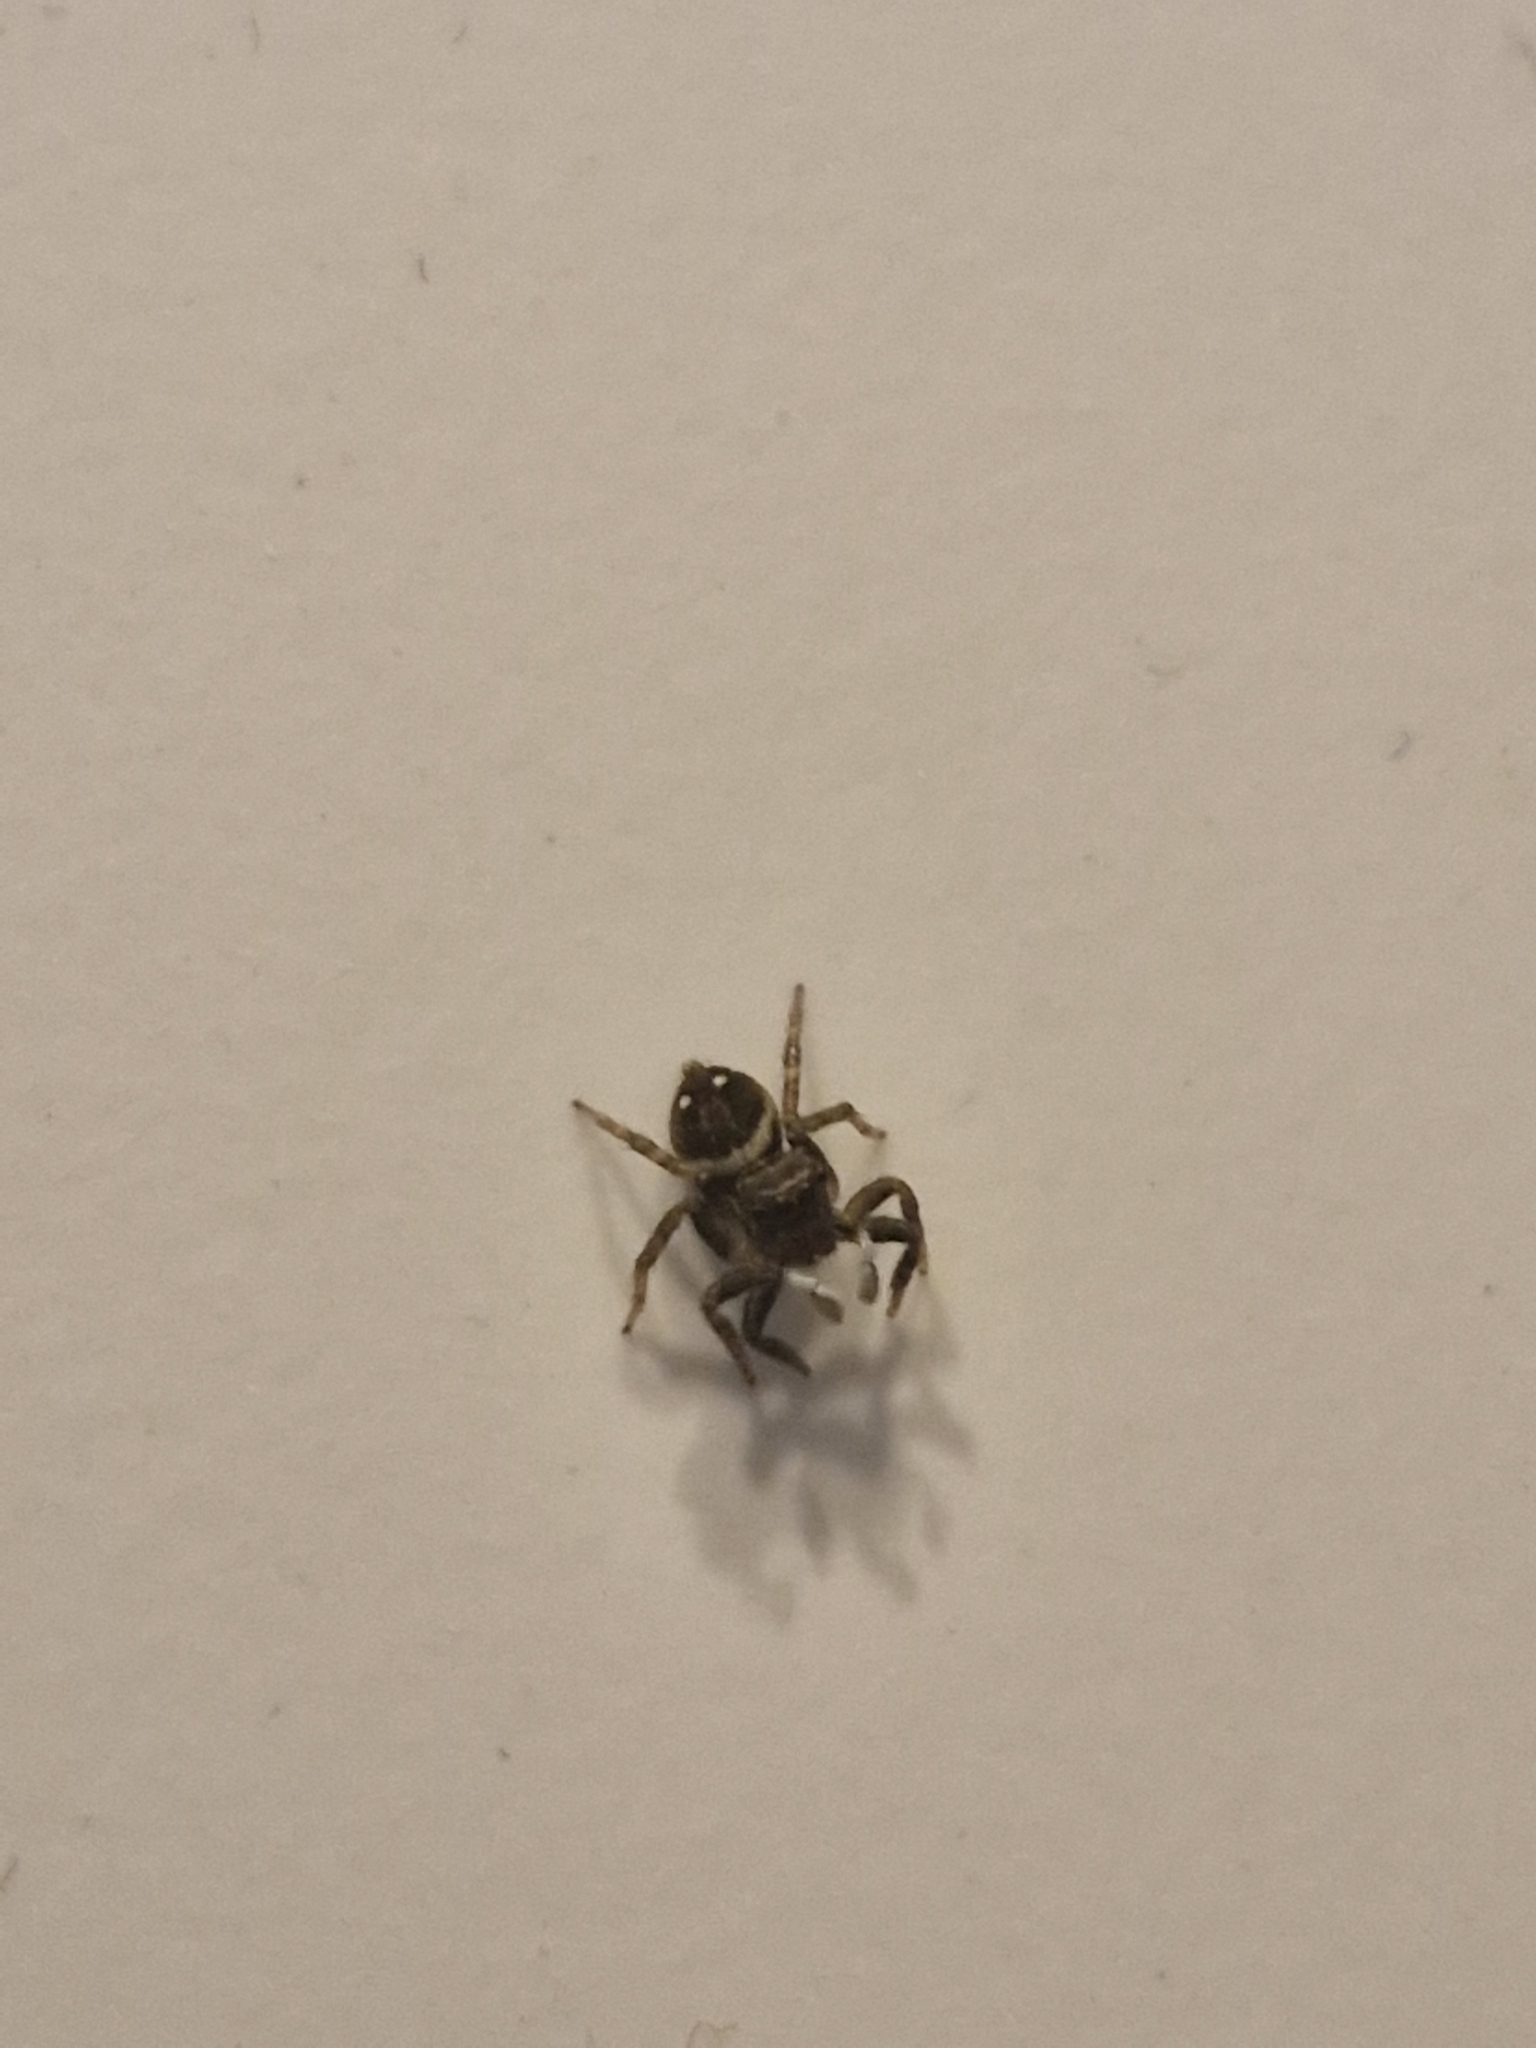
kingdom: Animalia
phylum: Arthropoda
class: Arachnida
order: Araneae
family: Salticidae
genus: Hasarius
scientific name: Hasarius adansoni
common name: Jumping spider
